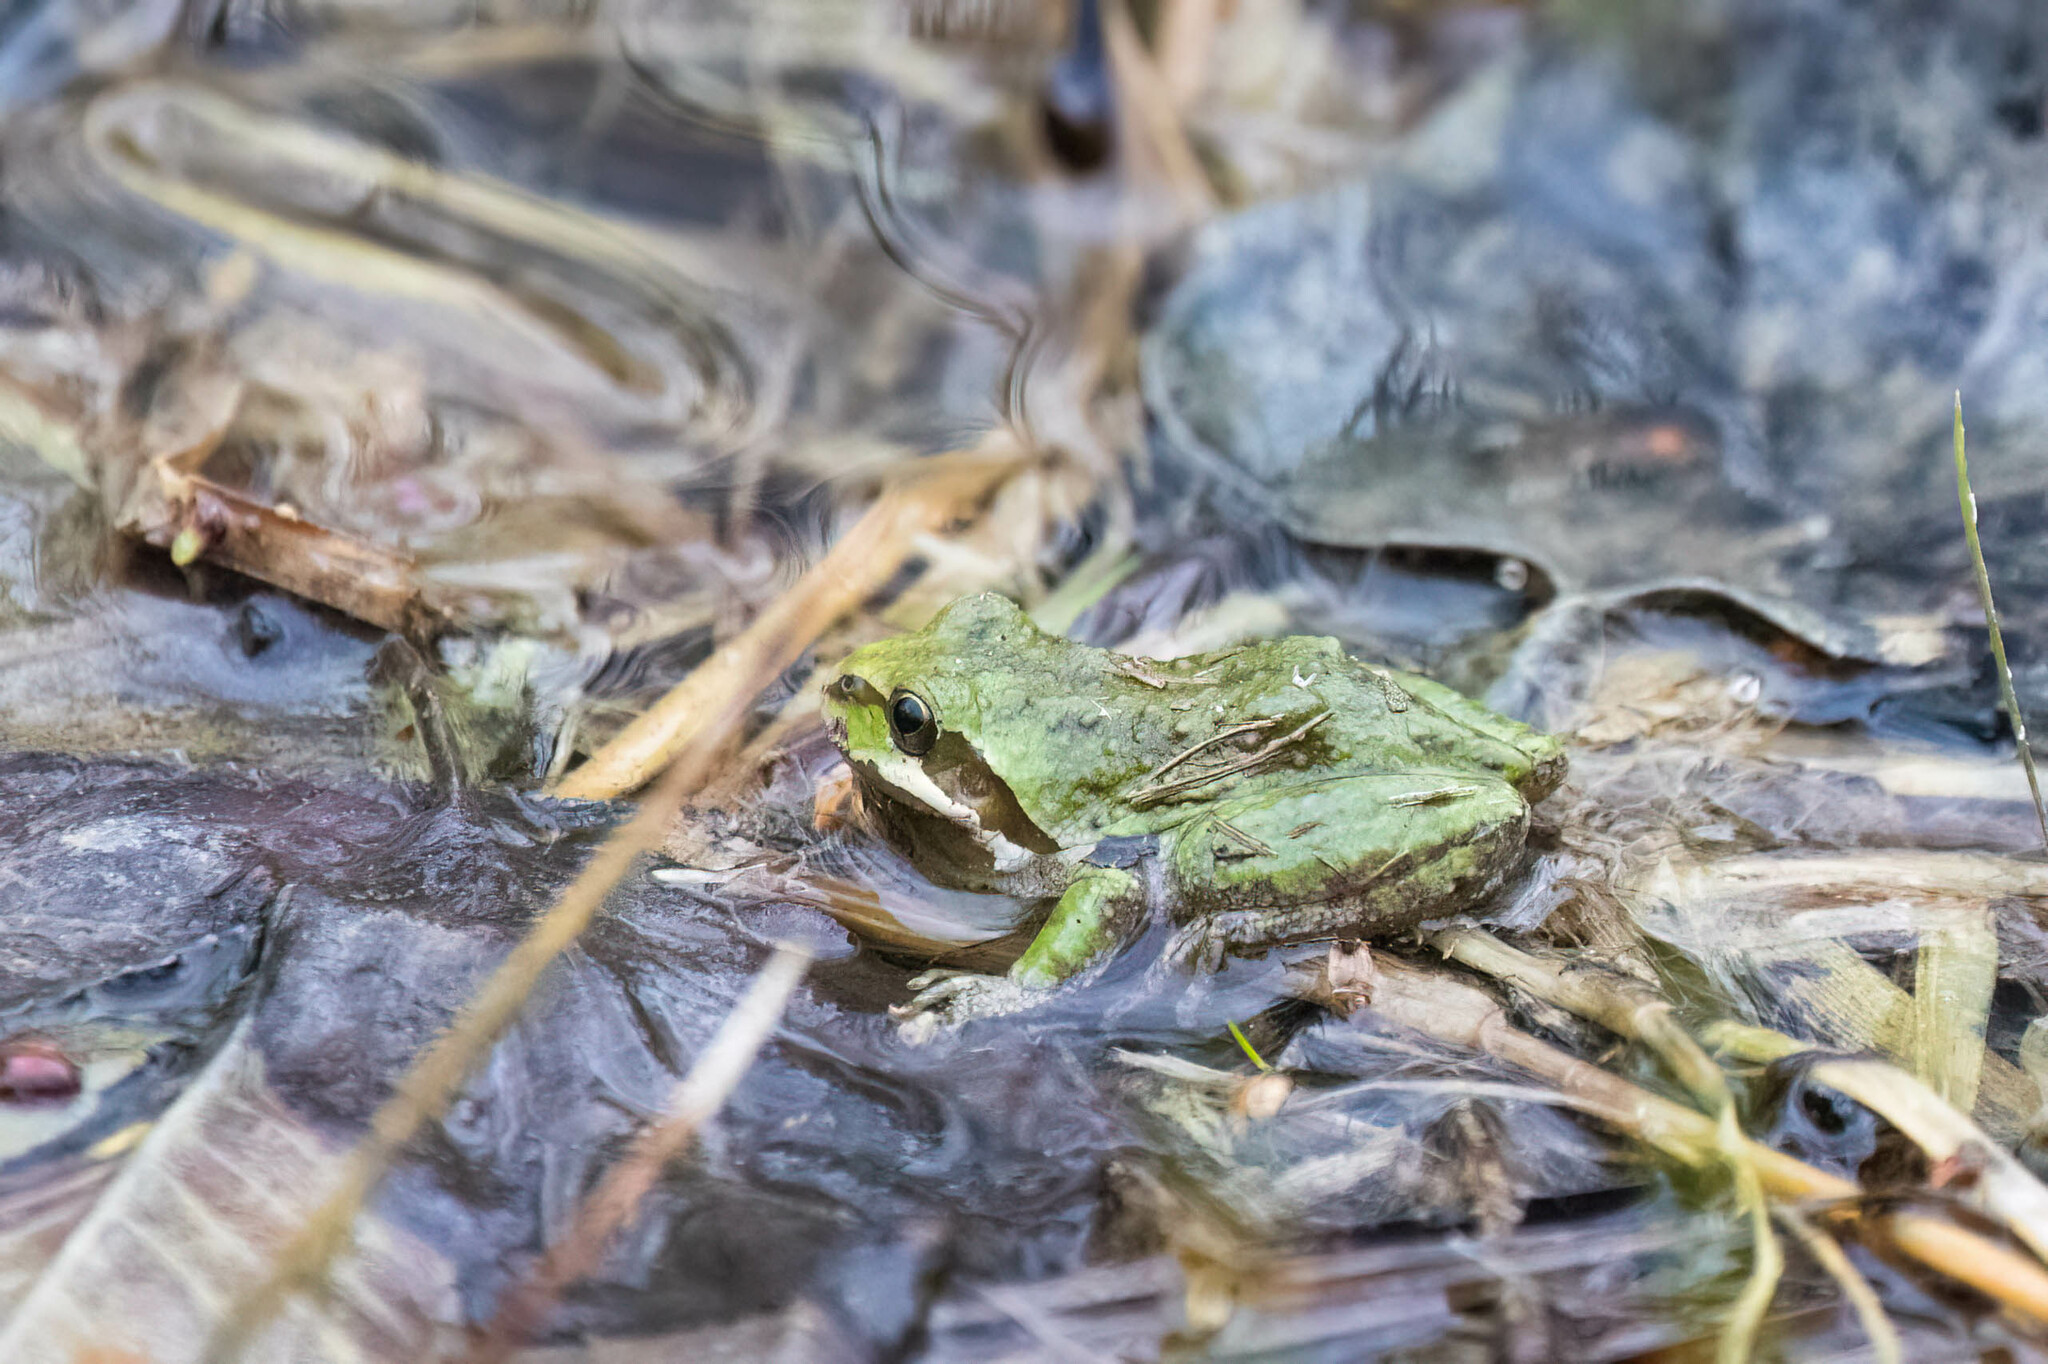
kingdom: Animalia
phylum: Chordata
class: Amphibia
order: Anura
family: Hylidae
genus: Pseudacris
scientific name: Pseudacris regilla
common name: Pacific chorus frog
